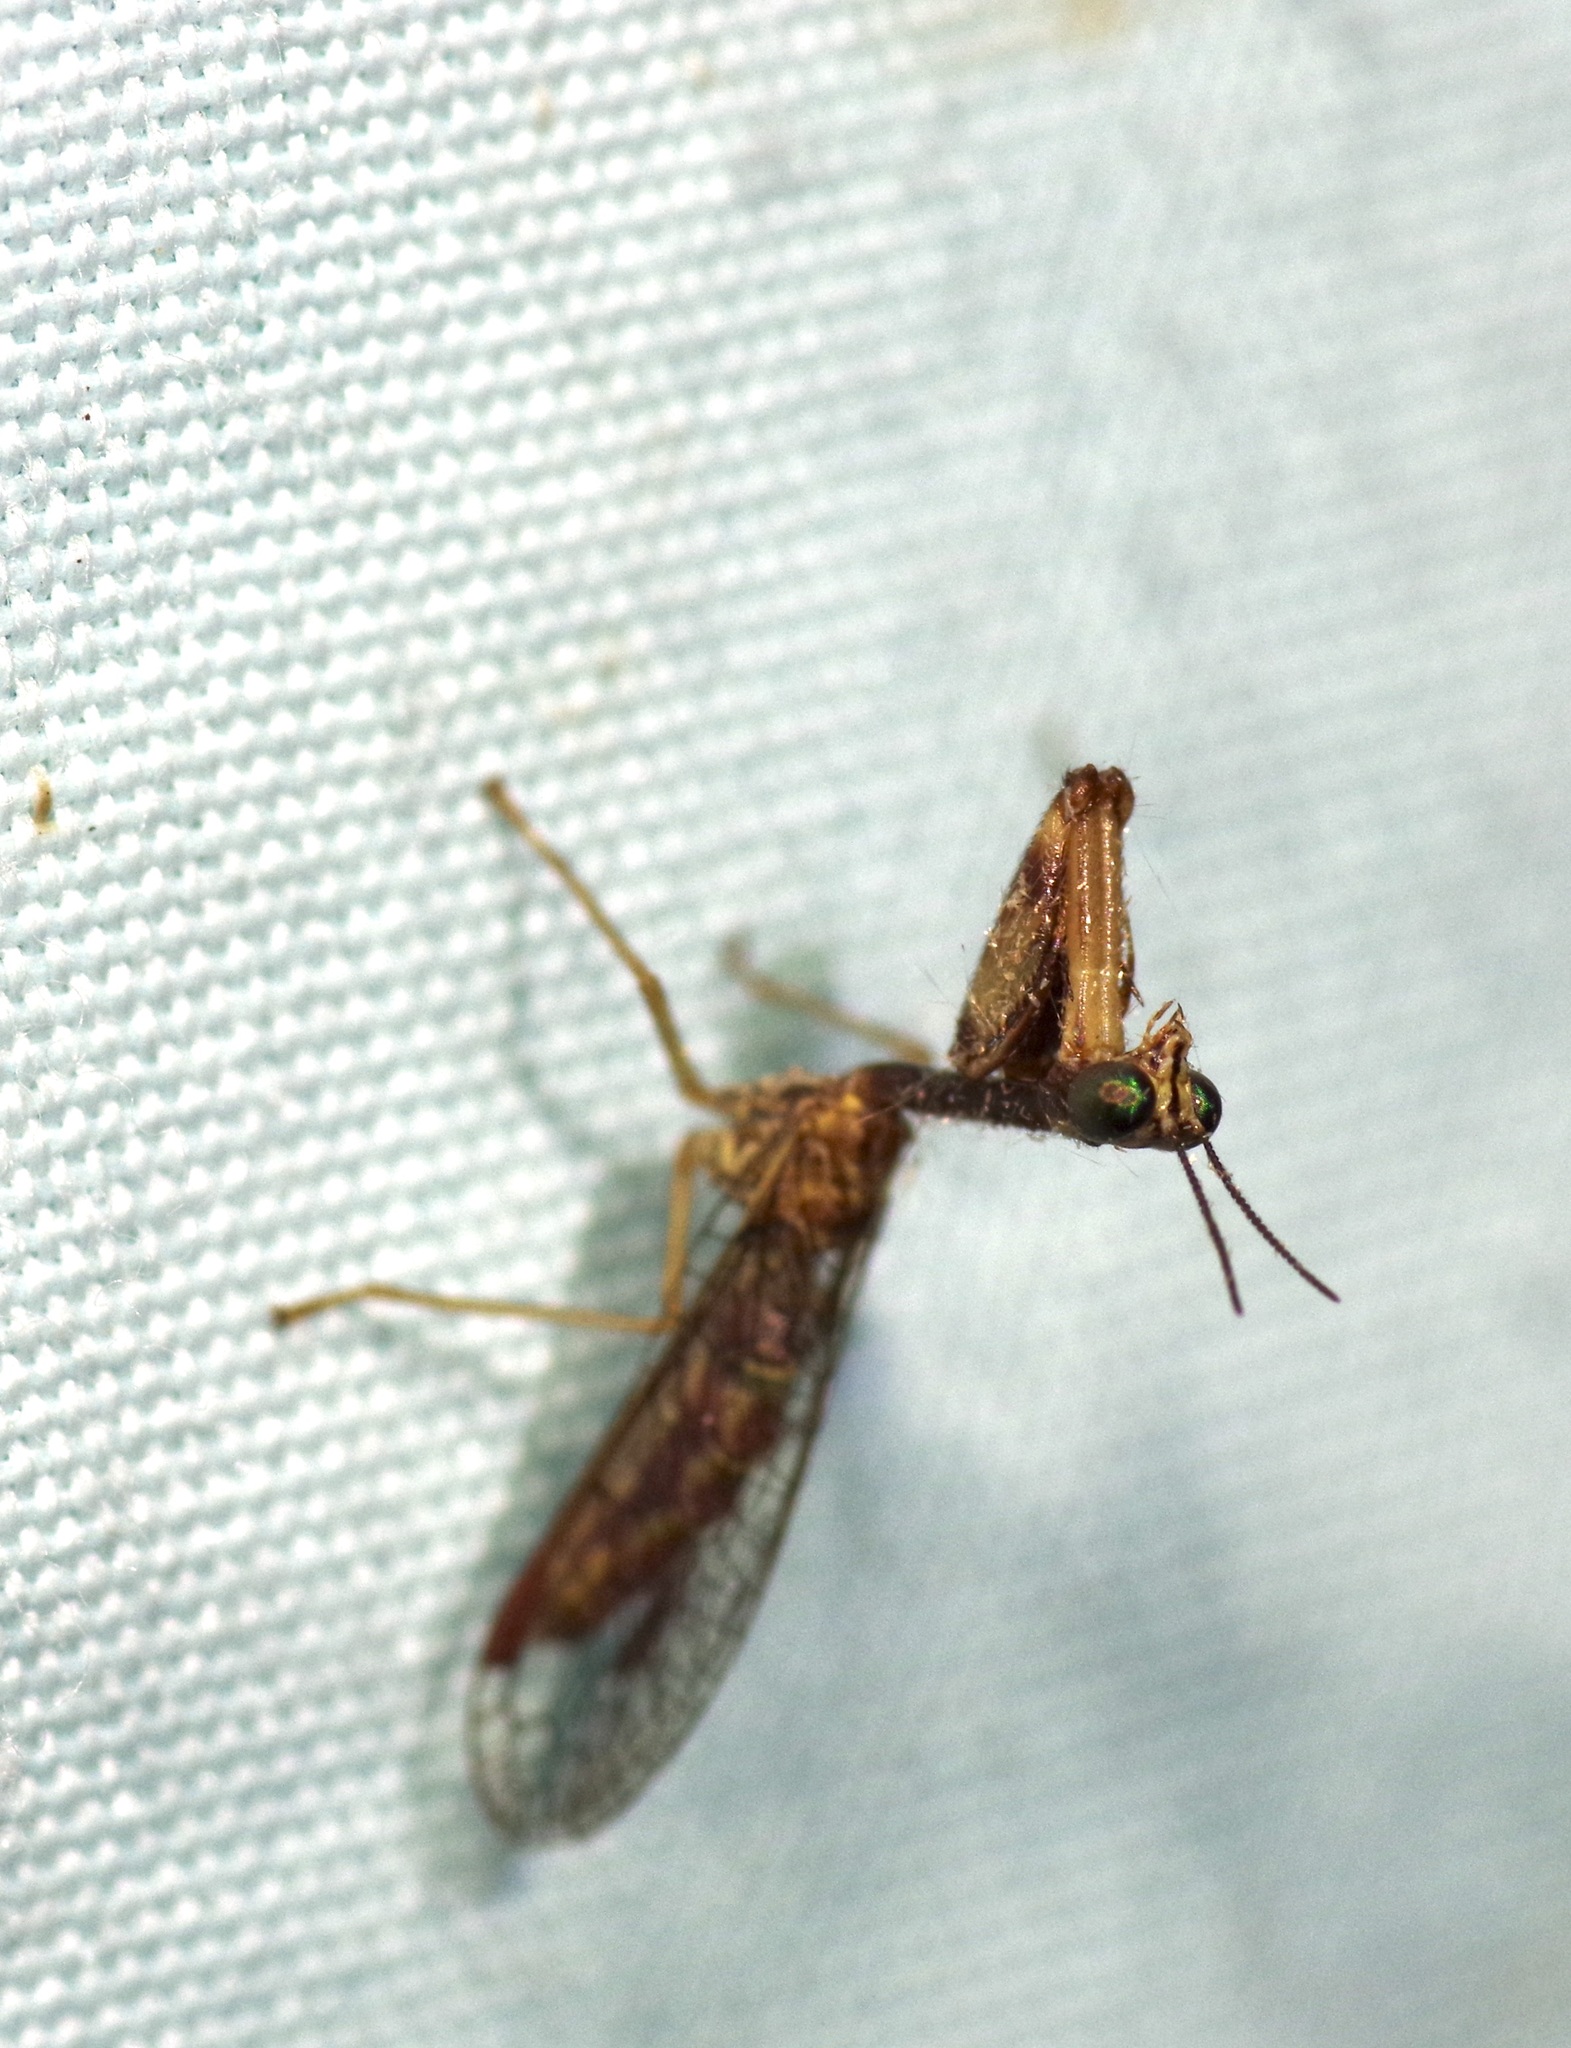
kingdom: Animalia
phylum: Arthropoda
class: Insecta
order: Neuroptera
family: Mantispidae
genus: Leptomantispa
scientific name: Leptomantispa pulchella
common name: Stevens's mantidfly
